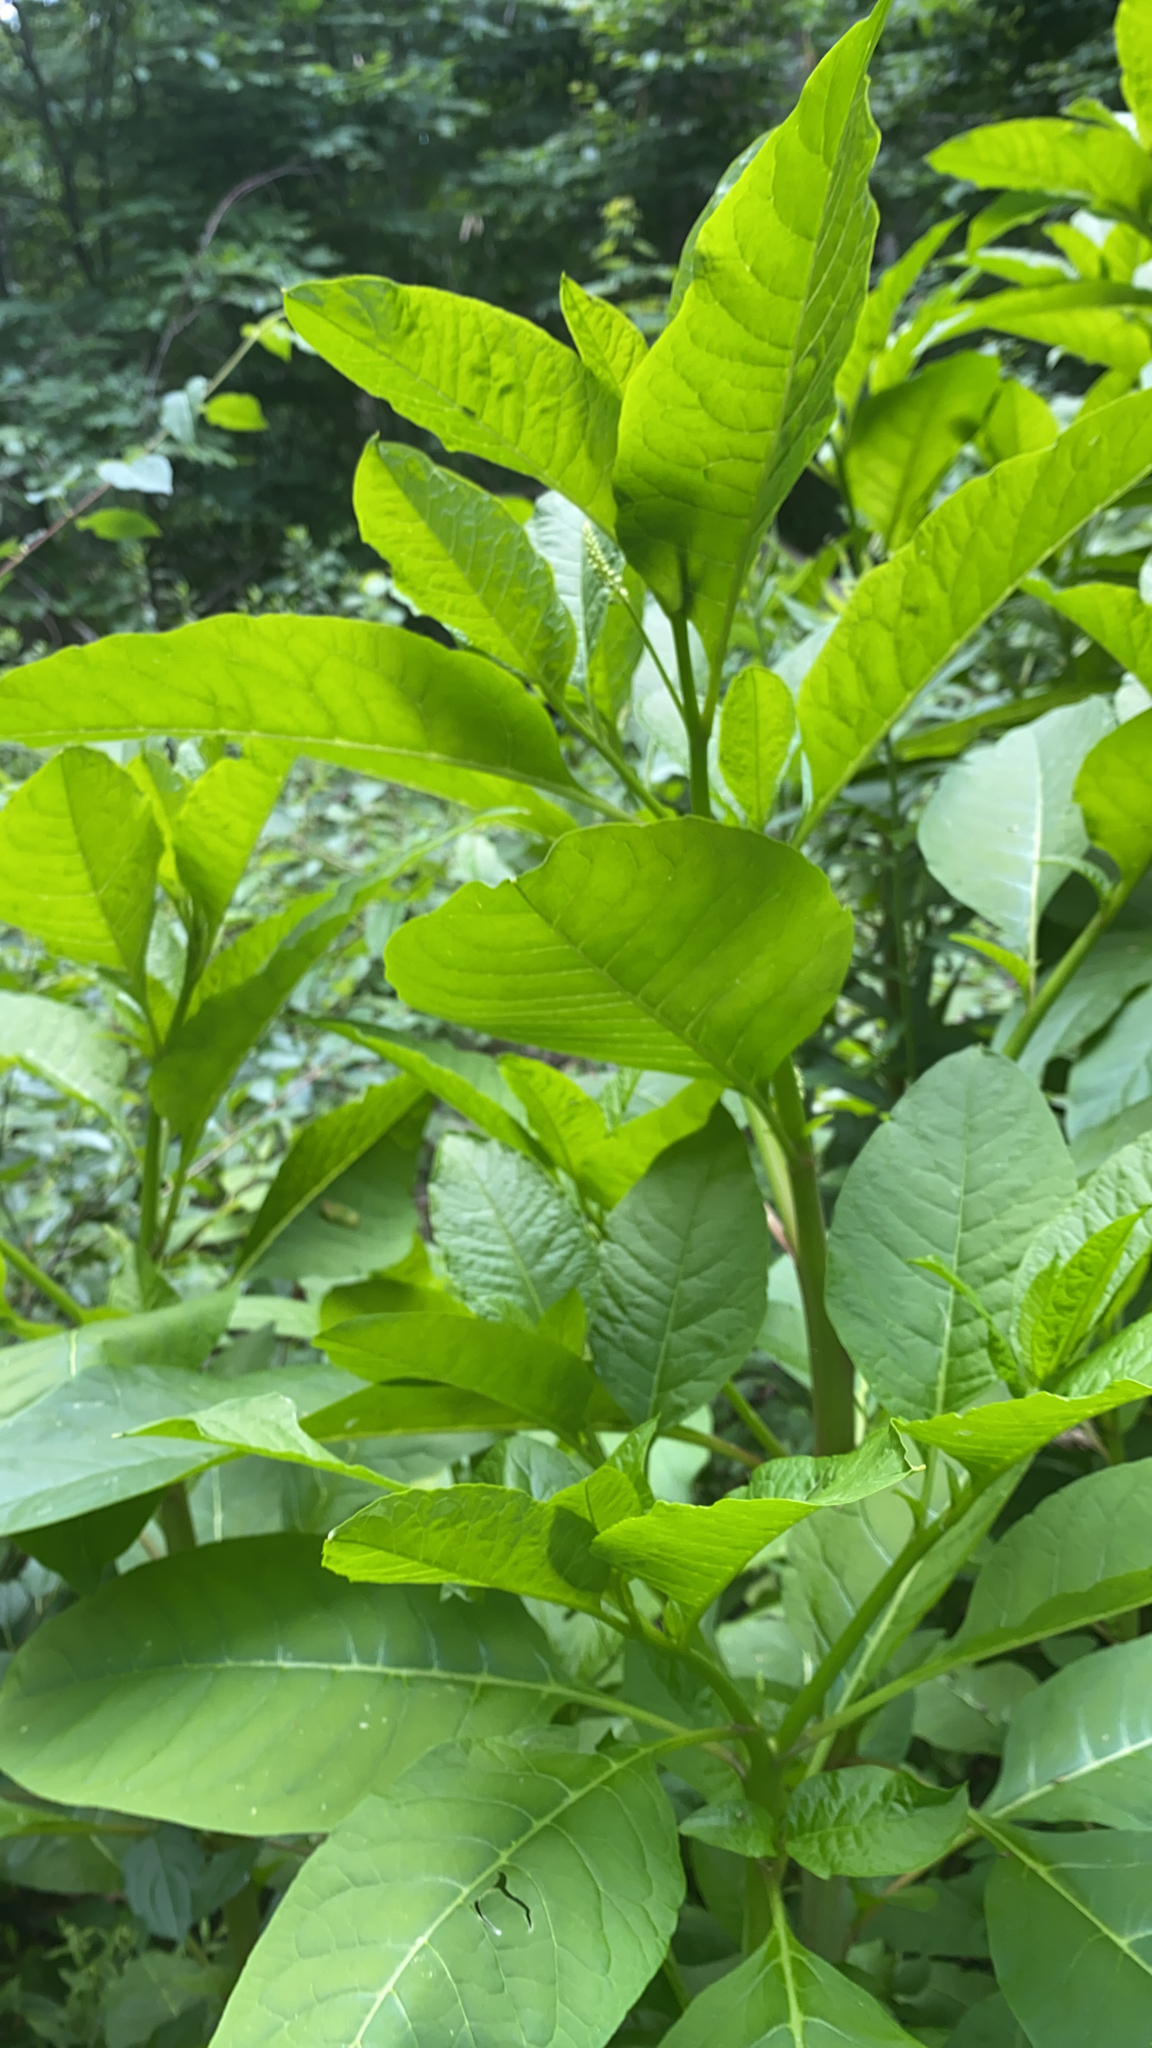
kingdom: Plantae
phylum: Tracheophyta
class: Magnoliopsida
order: Caryophyllales
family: Phytolaccaceae
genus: Phytolacca
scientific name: Phytolacca americana
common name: American pokeweed
